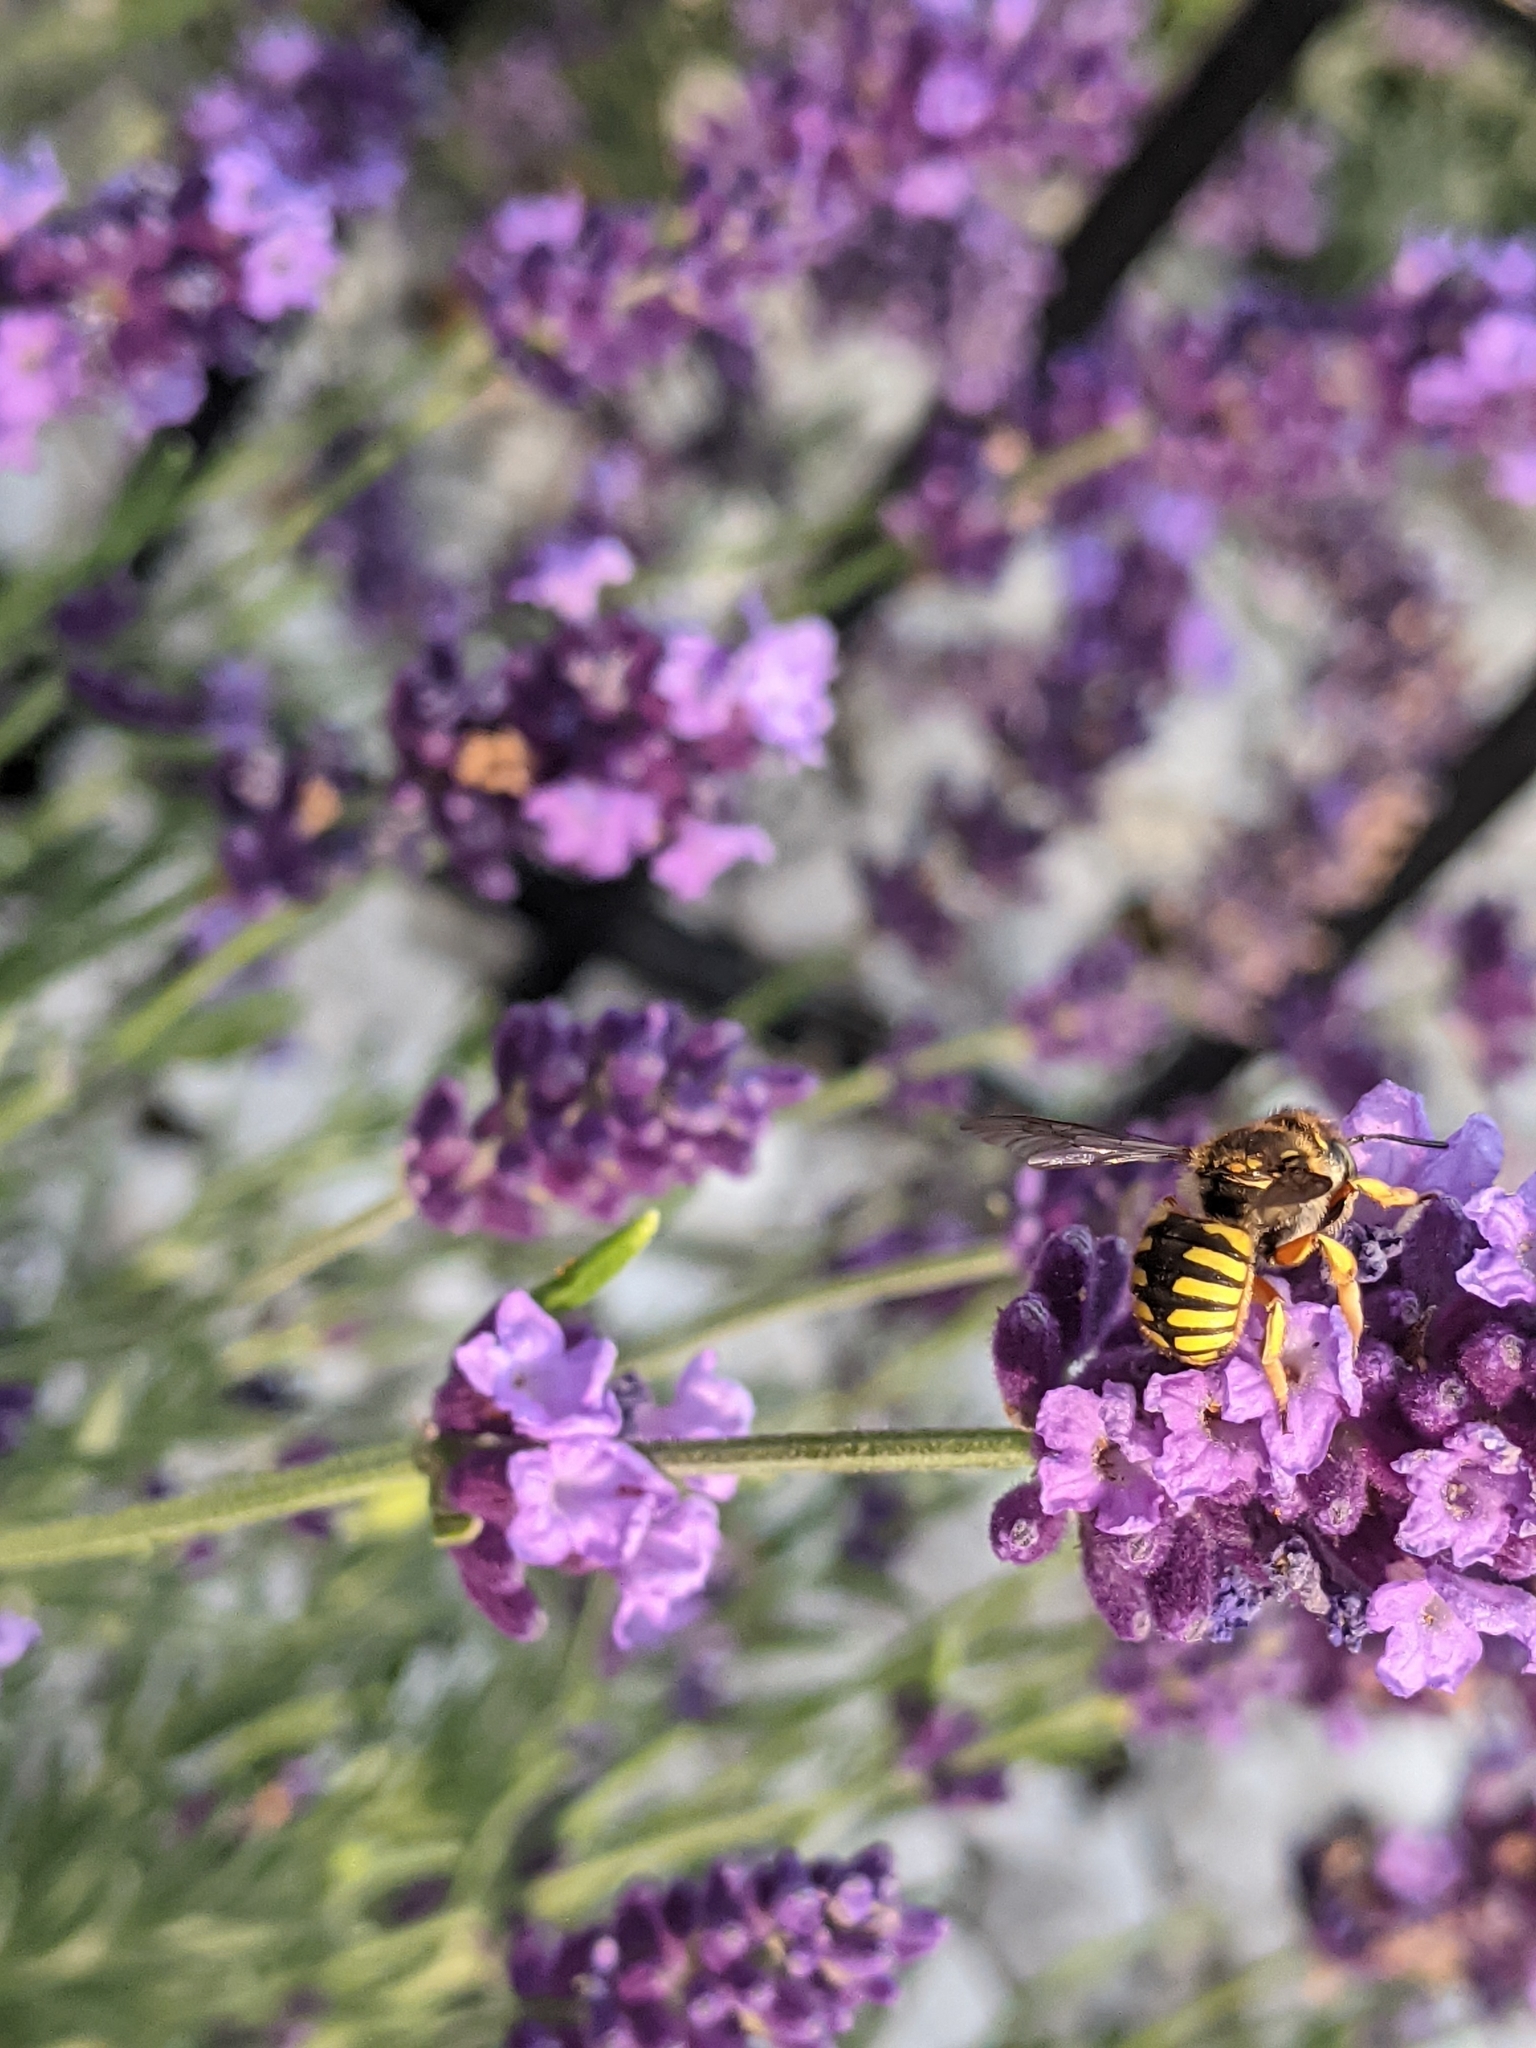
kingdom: Animalia
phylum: Arthropoda
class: Insecta
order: Hymenoptera
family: Megachilidae
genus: Anthidium
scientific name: Anthidium manicatum
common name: Wool carder bee
